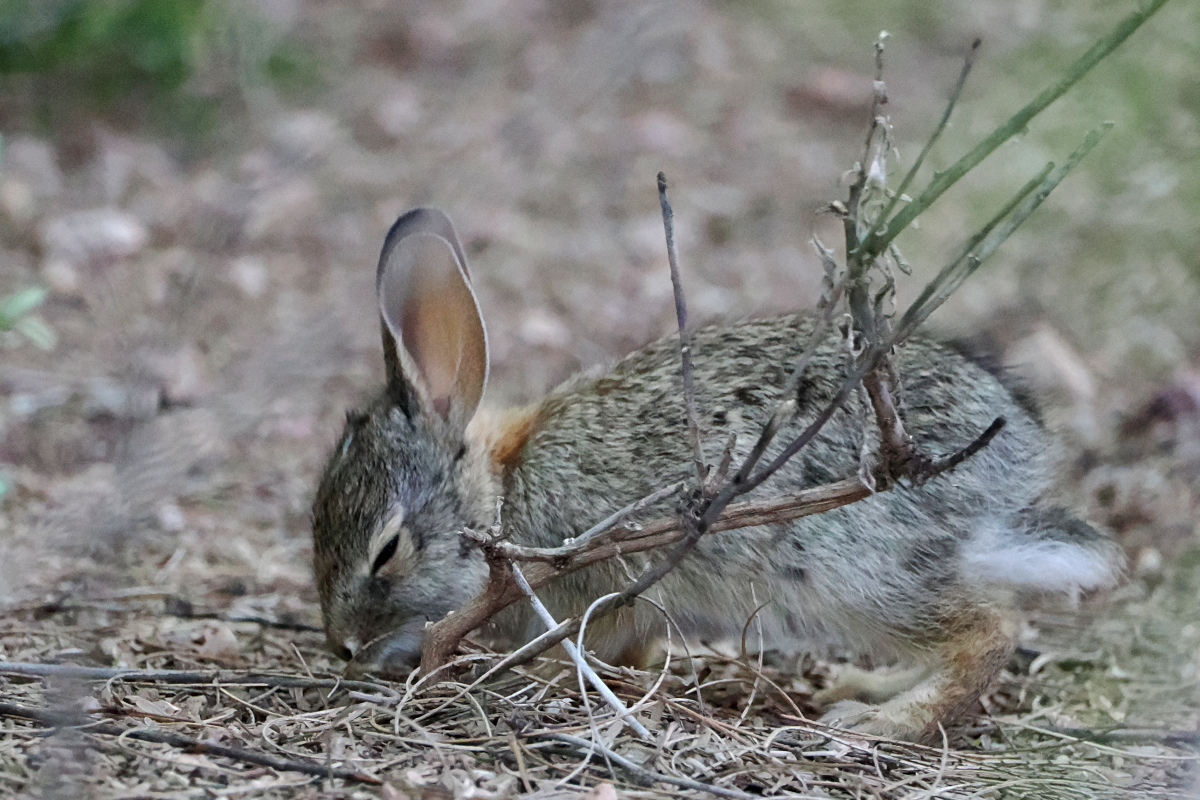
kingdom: Animalia
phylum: Chordata
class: Mammalia
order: Lagomorpha
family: Leporidae
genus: Sylvilagus
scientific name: Sylvilagus audubonii
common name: Desert cottontail
